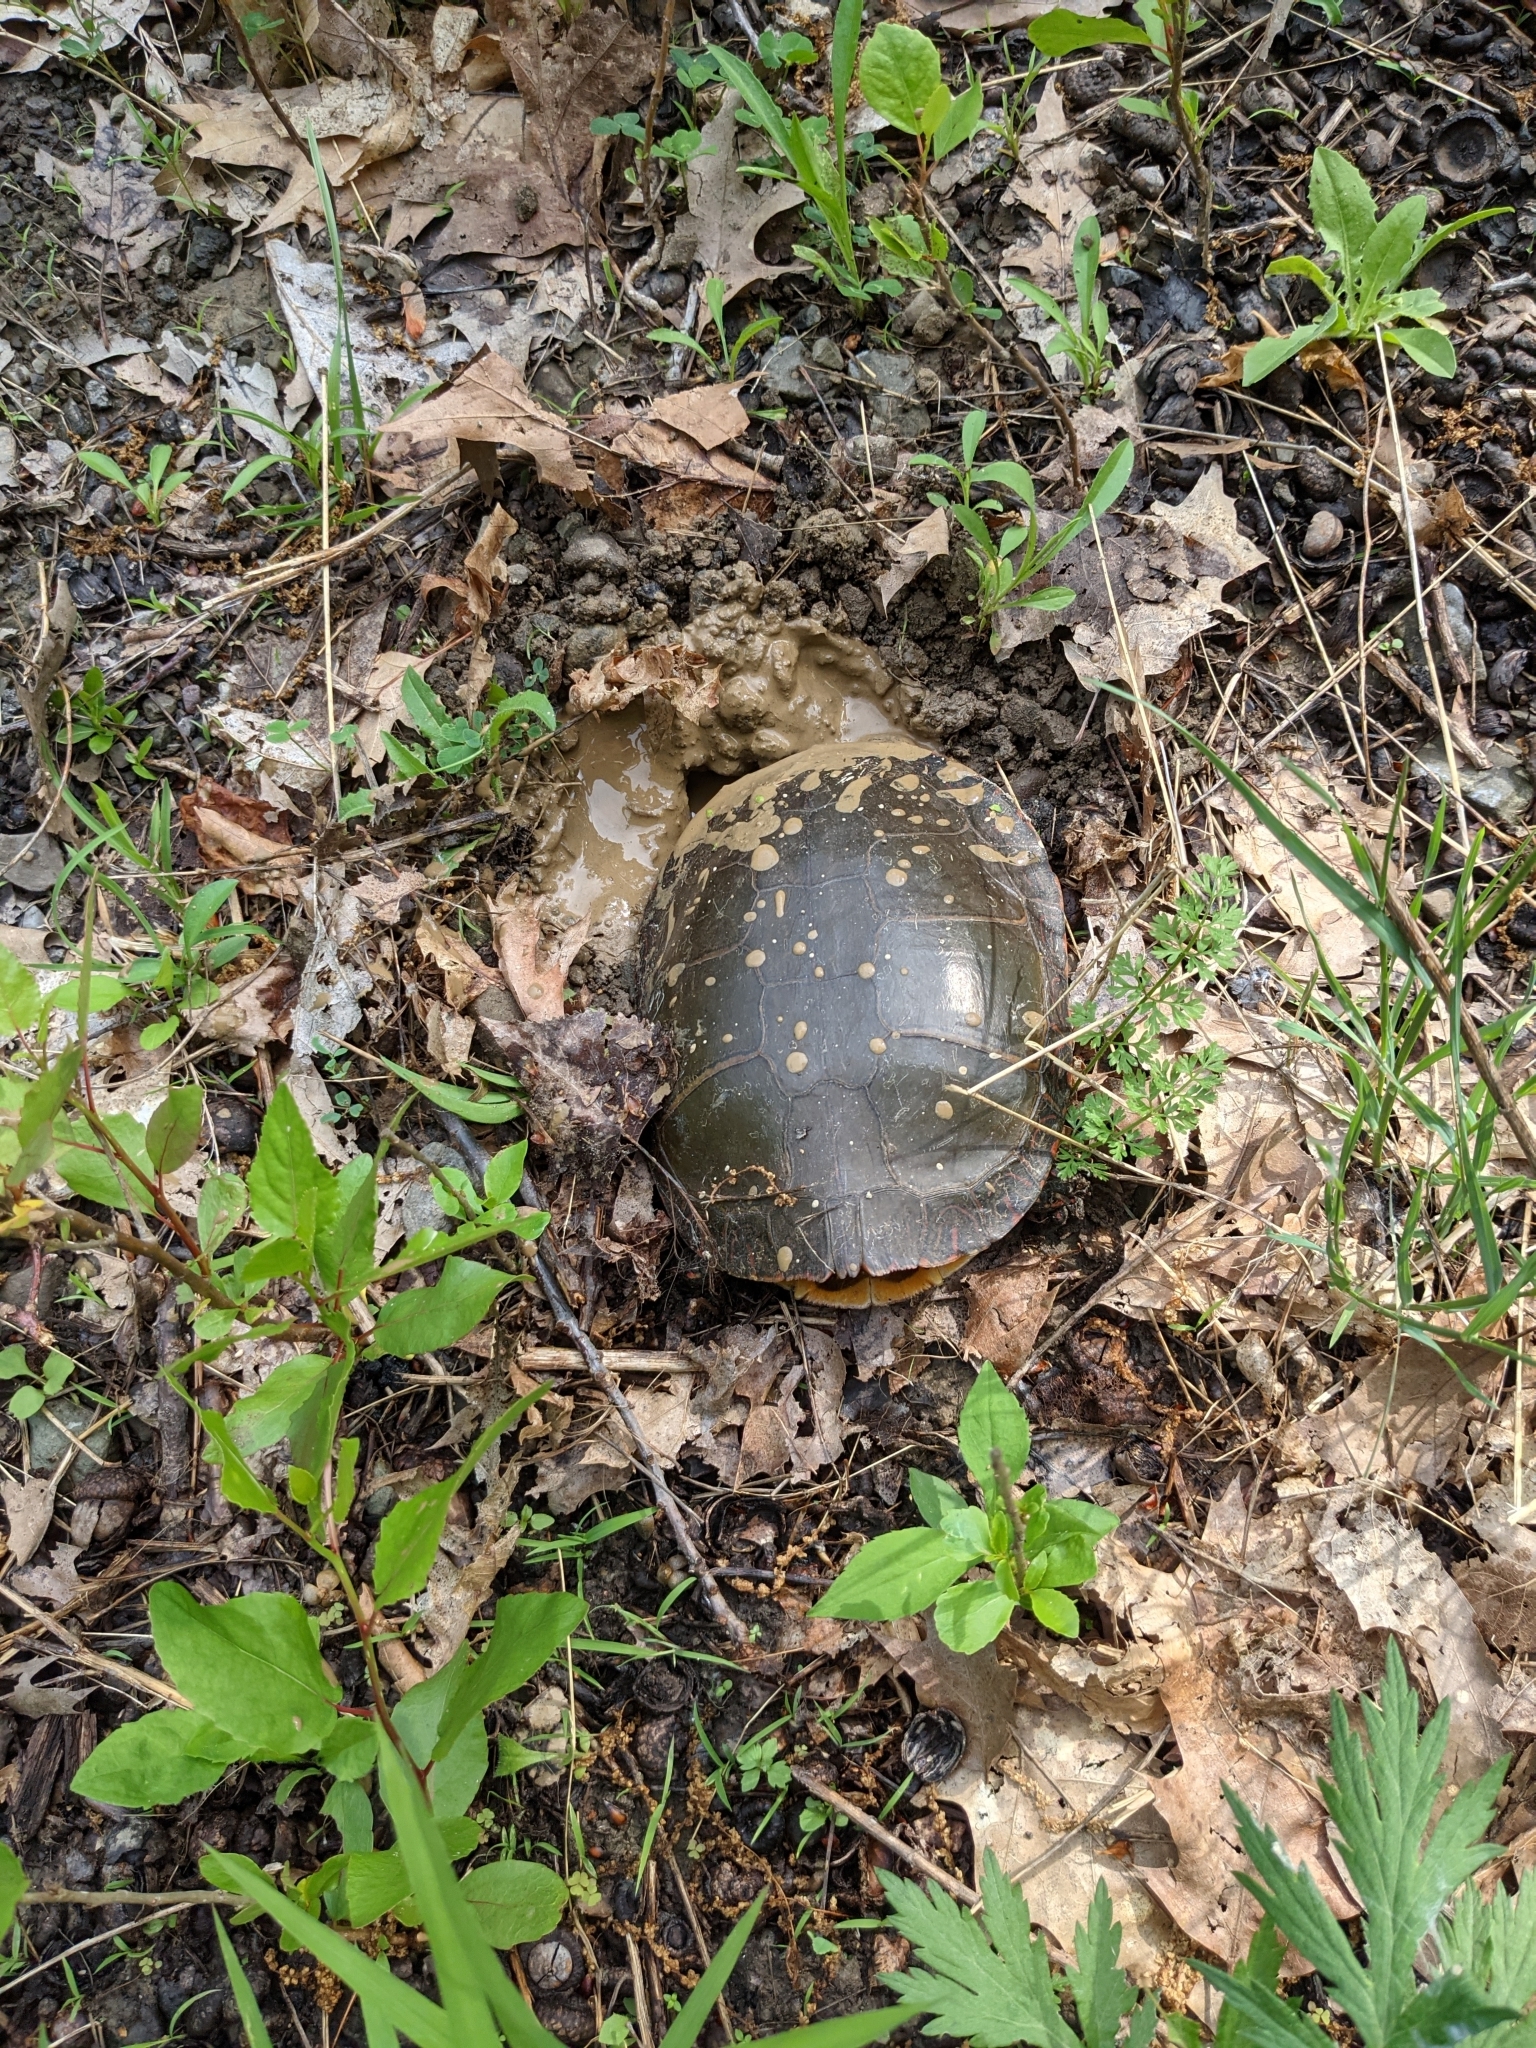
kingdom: Animalia
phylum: Chordata
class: Testudines
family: Emydidae
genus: Chrysemys
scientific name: Chrysemys picta
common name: Painted turtle
